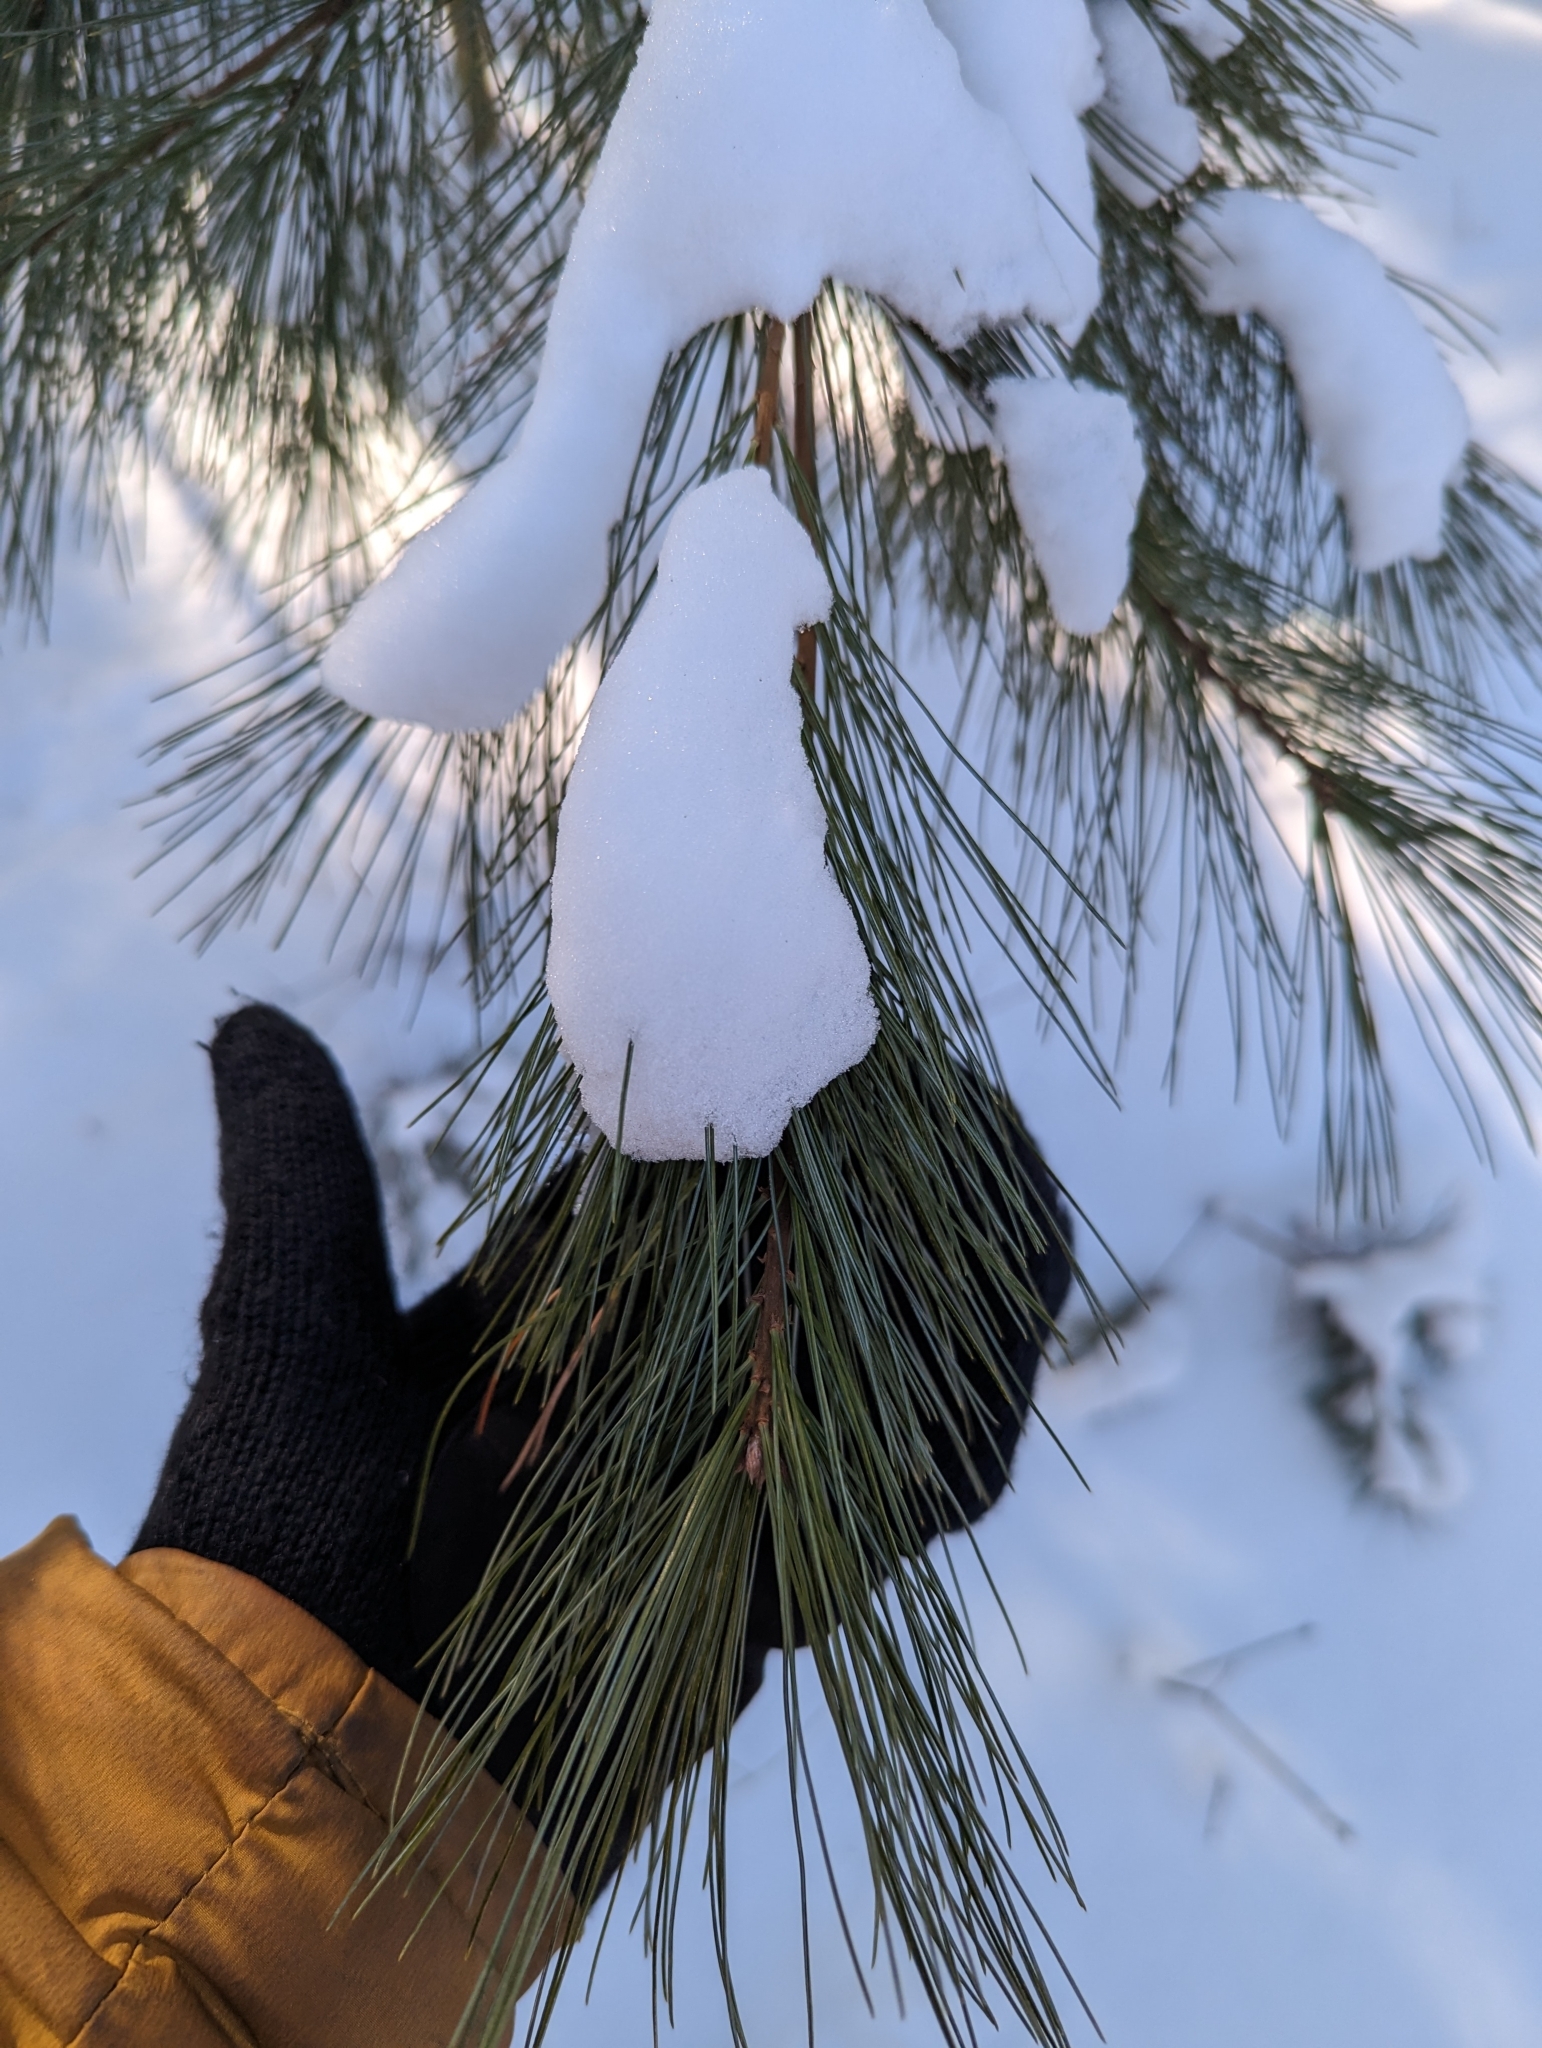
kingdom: Plantae
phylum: Tracheophyta
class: Pinopsida
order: Pinales
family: Pinaceae
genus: Pinus
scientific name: Pinus strobus
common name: Weymouth pine
